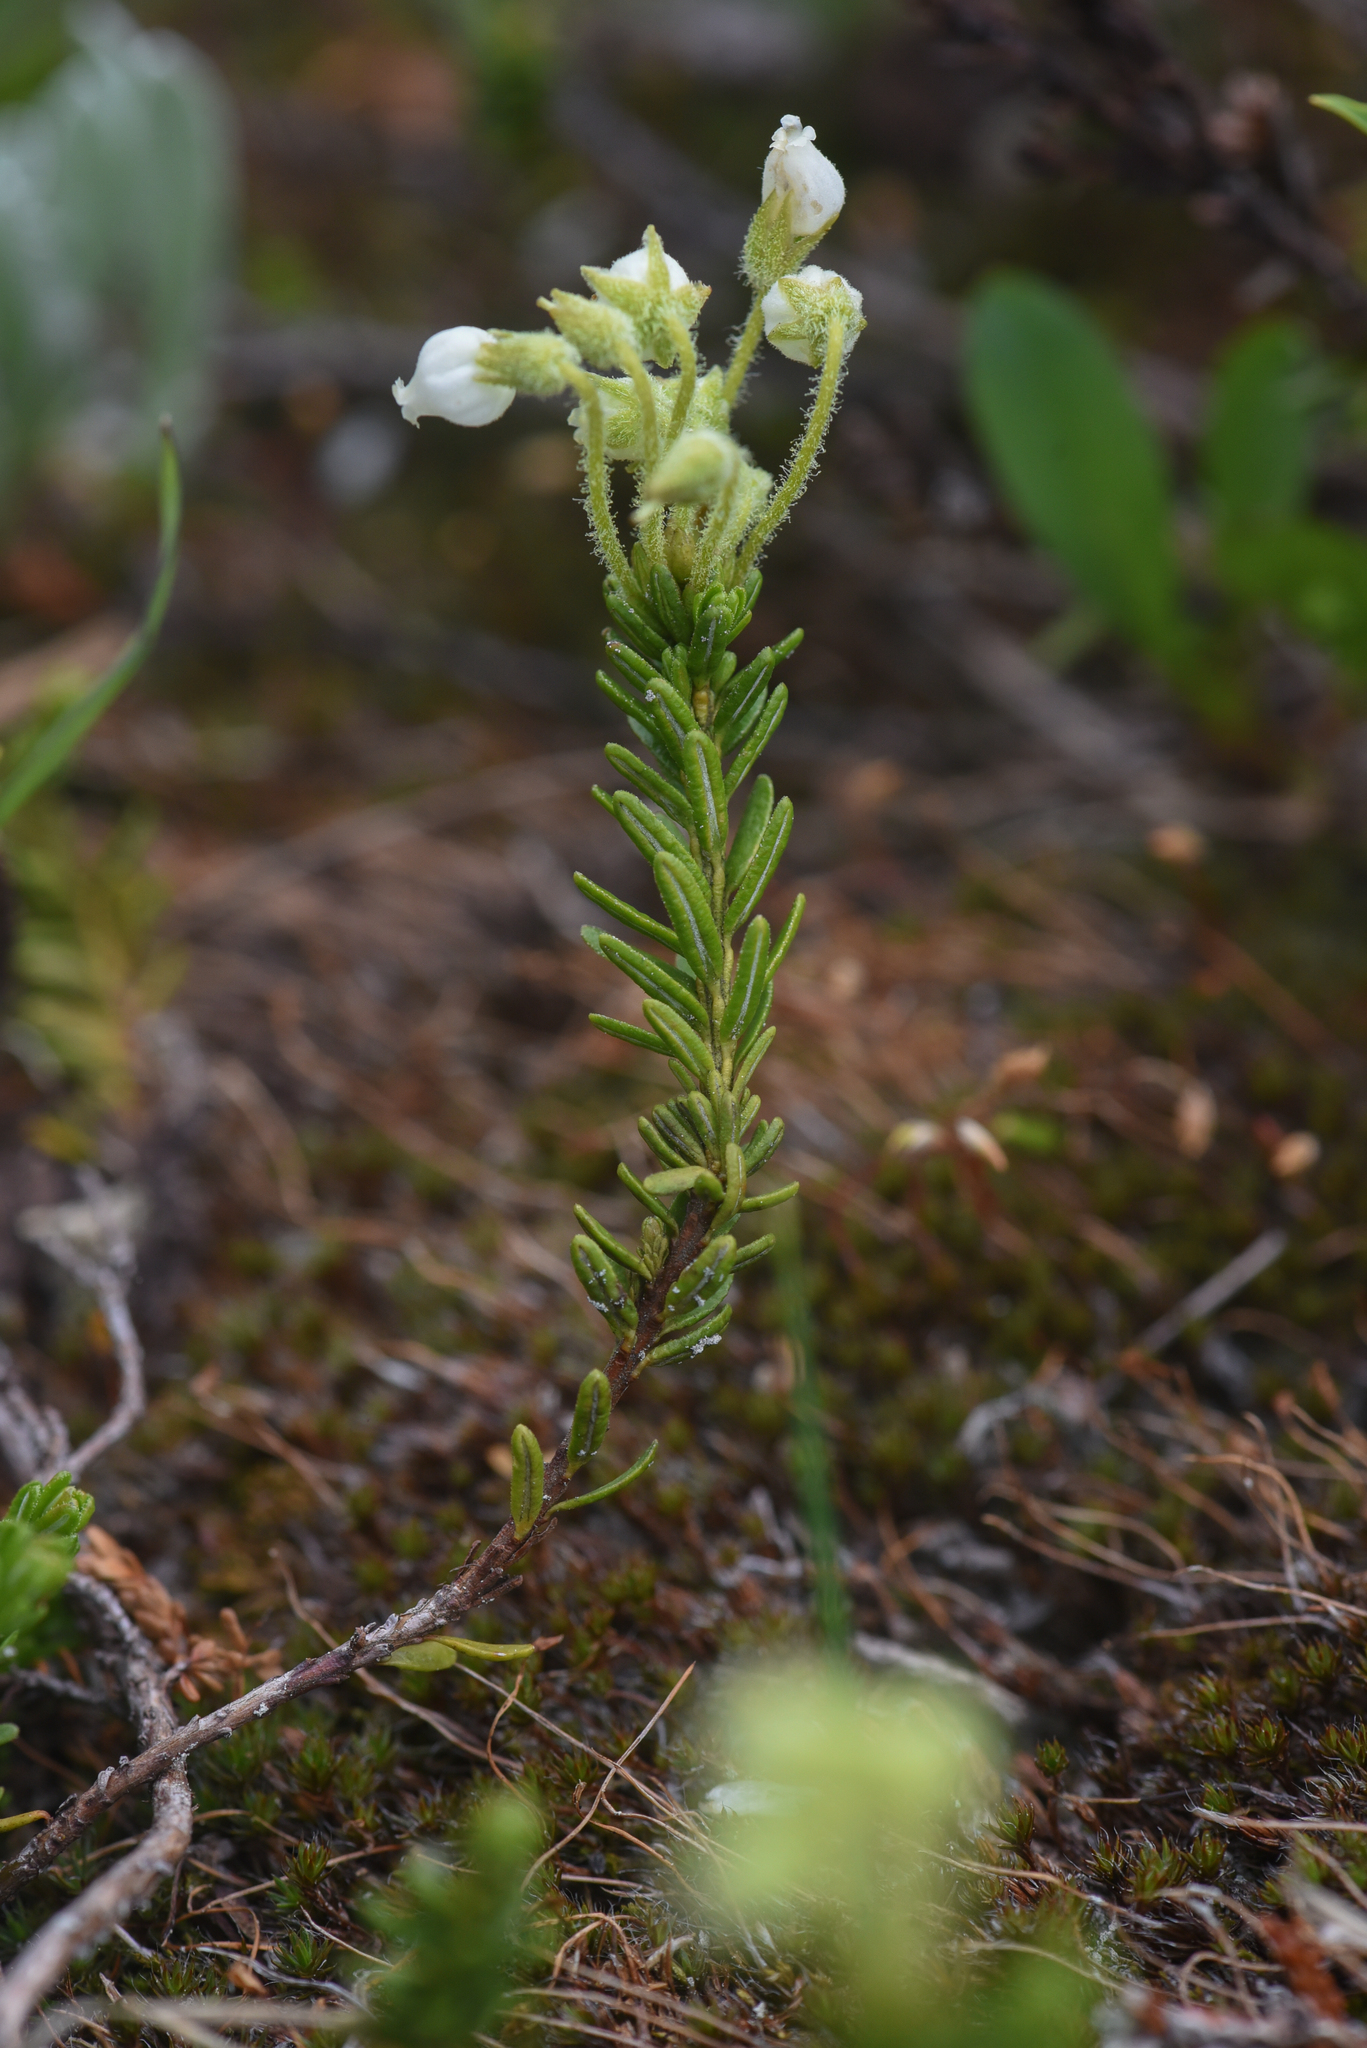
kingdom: Plantae
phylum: Tracheophyta
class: Magnoliopsida
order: Ericales
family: Ericaceae
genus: Phyllodoce
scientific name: Phyllodoce glanduliflora
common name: Cream mountain heather
